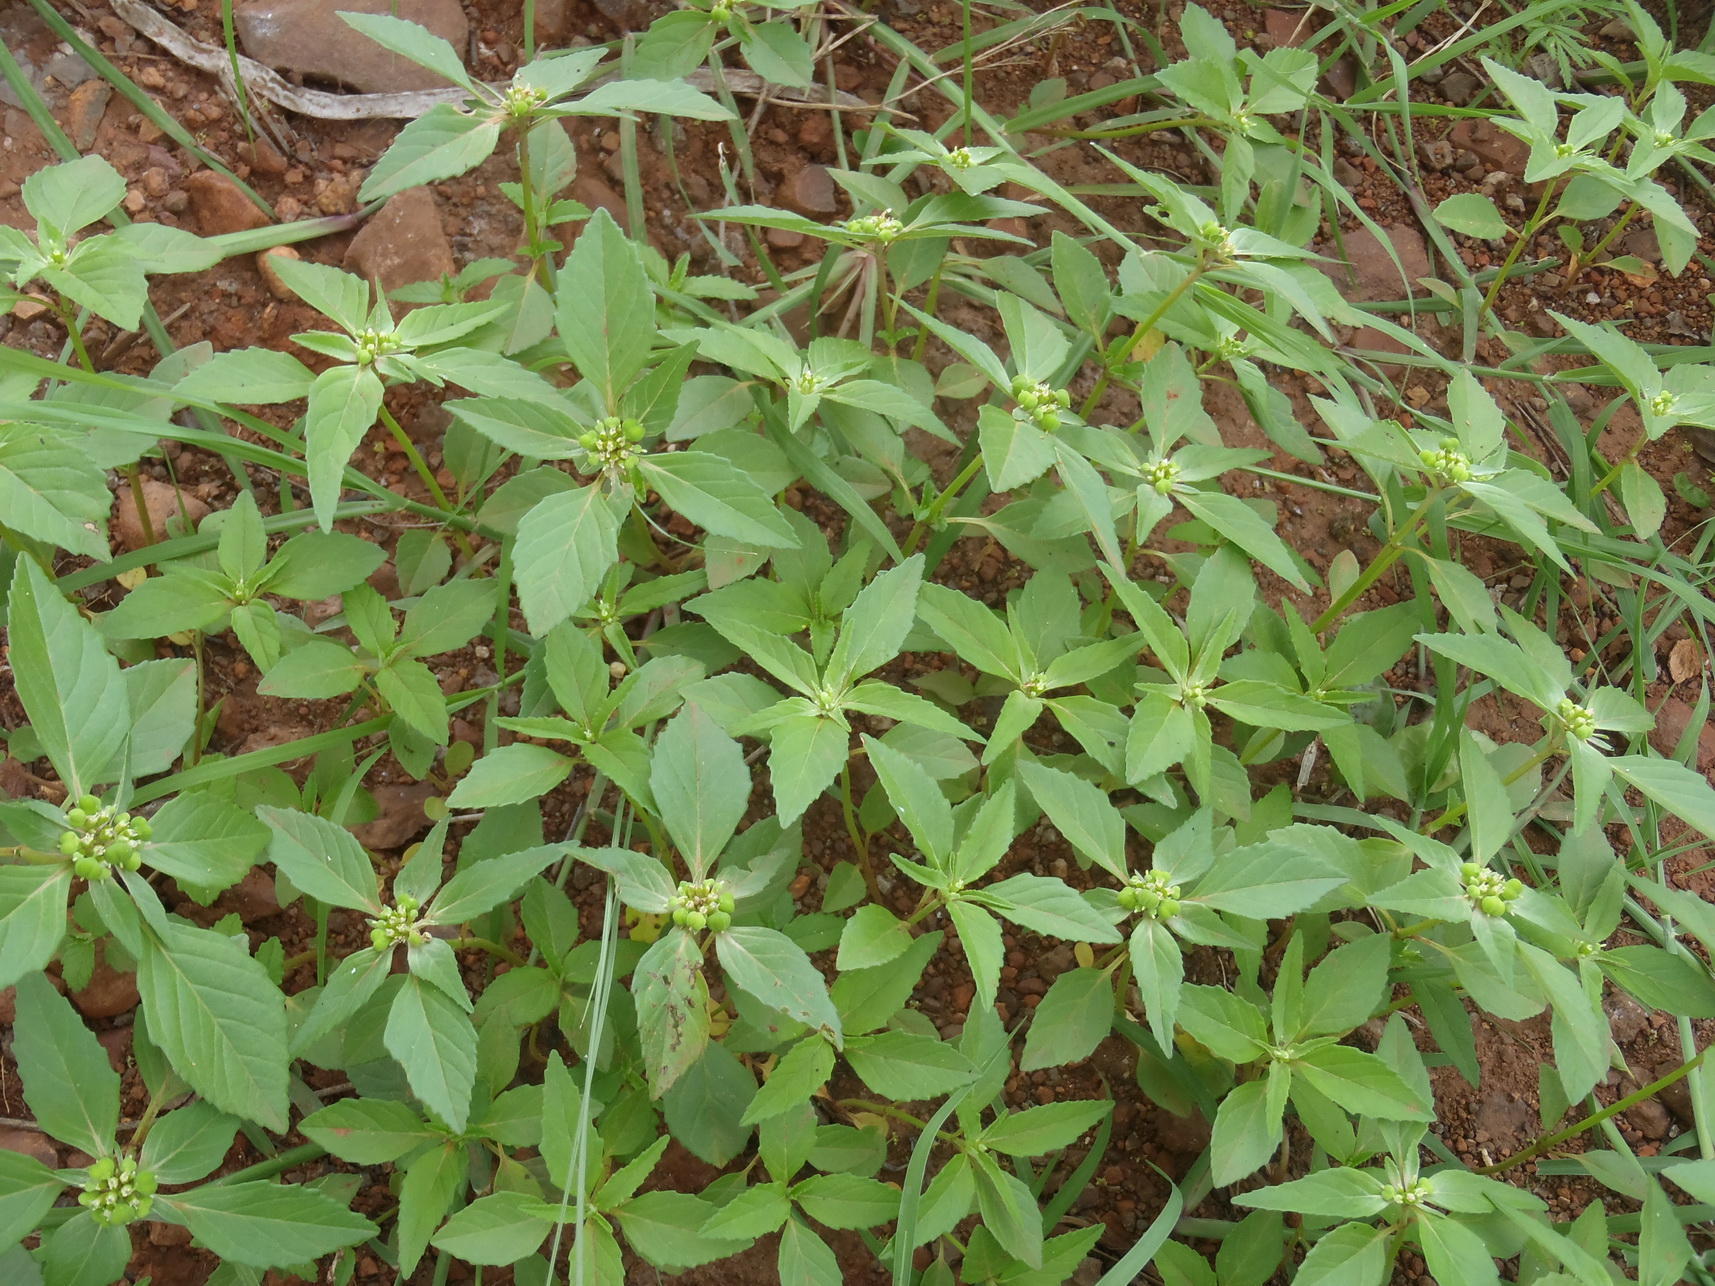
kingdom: Plantae
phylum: Tracheophyta
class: Magnoliopsida
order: Malpighiales
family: Euphorbiaceae
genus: Euphorbia
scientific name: Euphorbia dentata
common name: Dentate spurge
